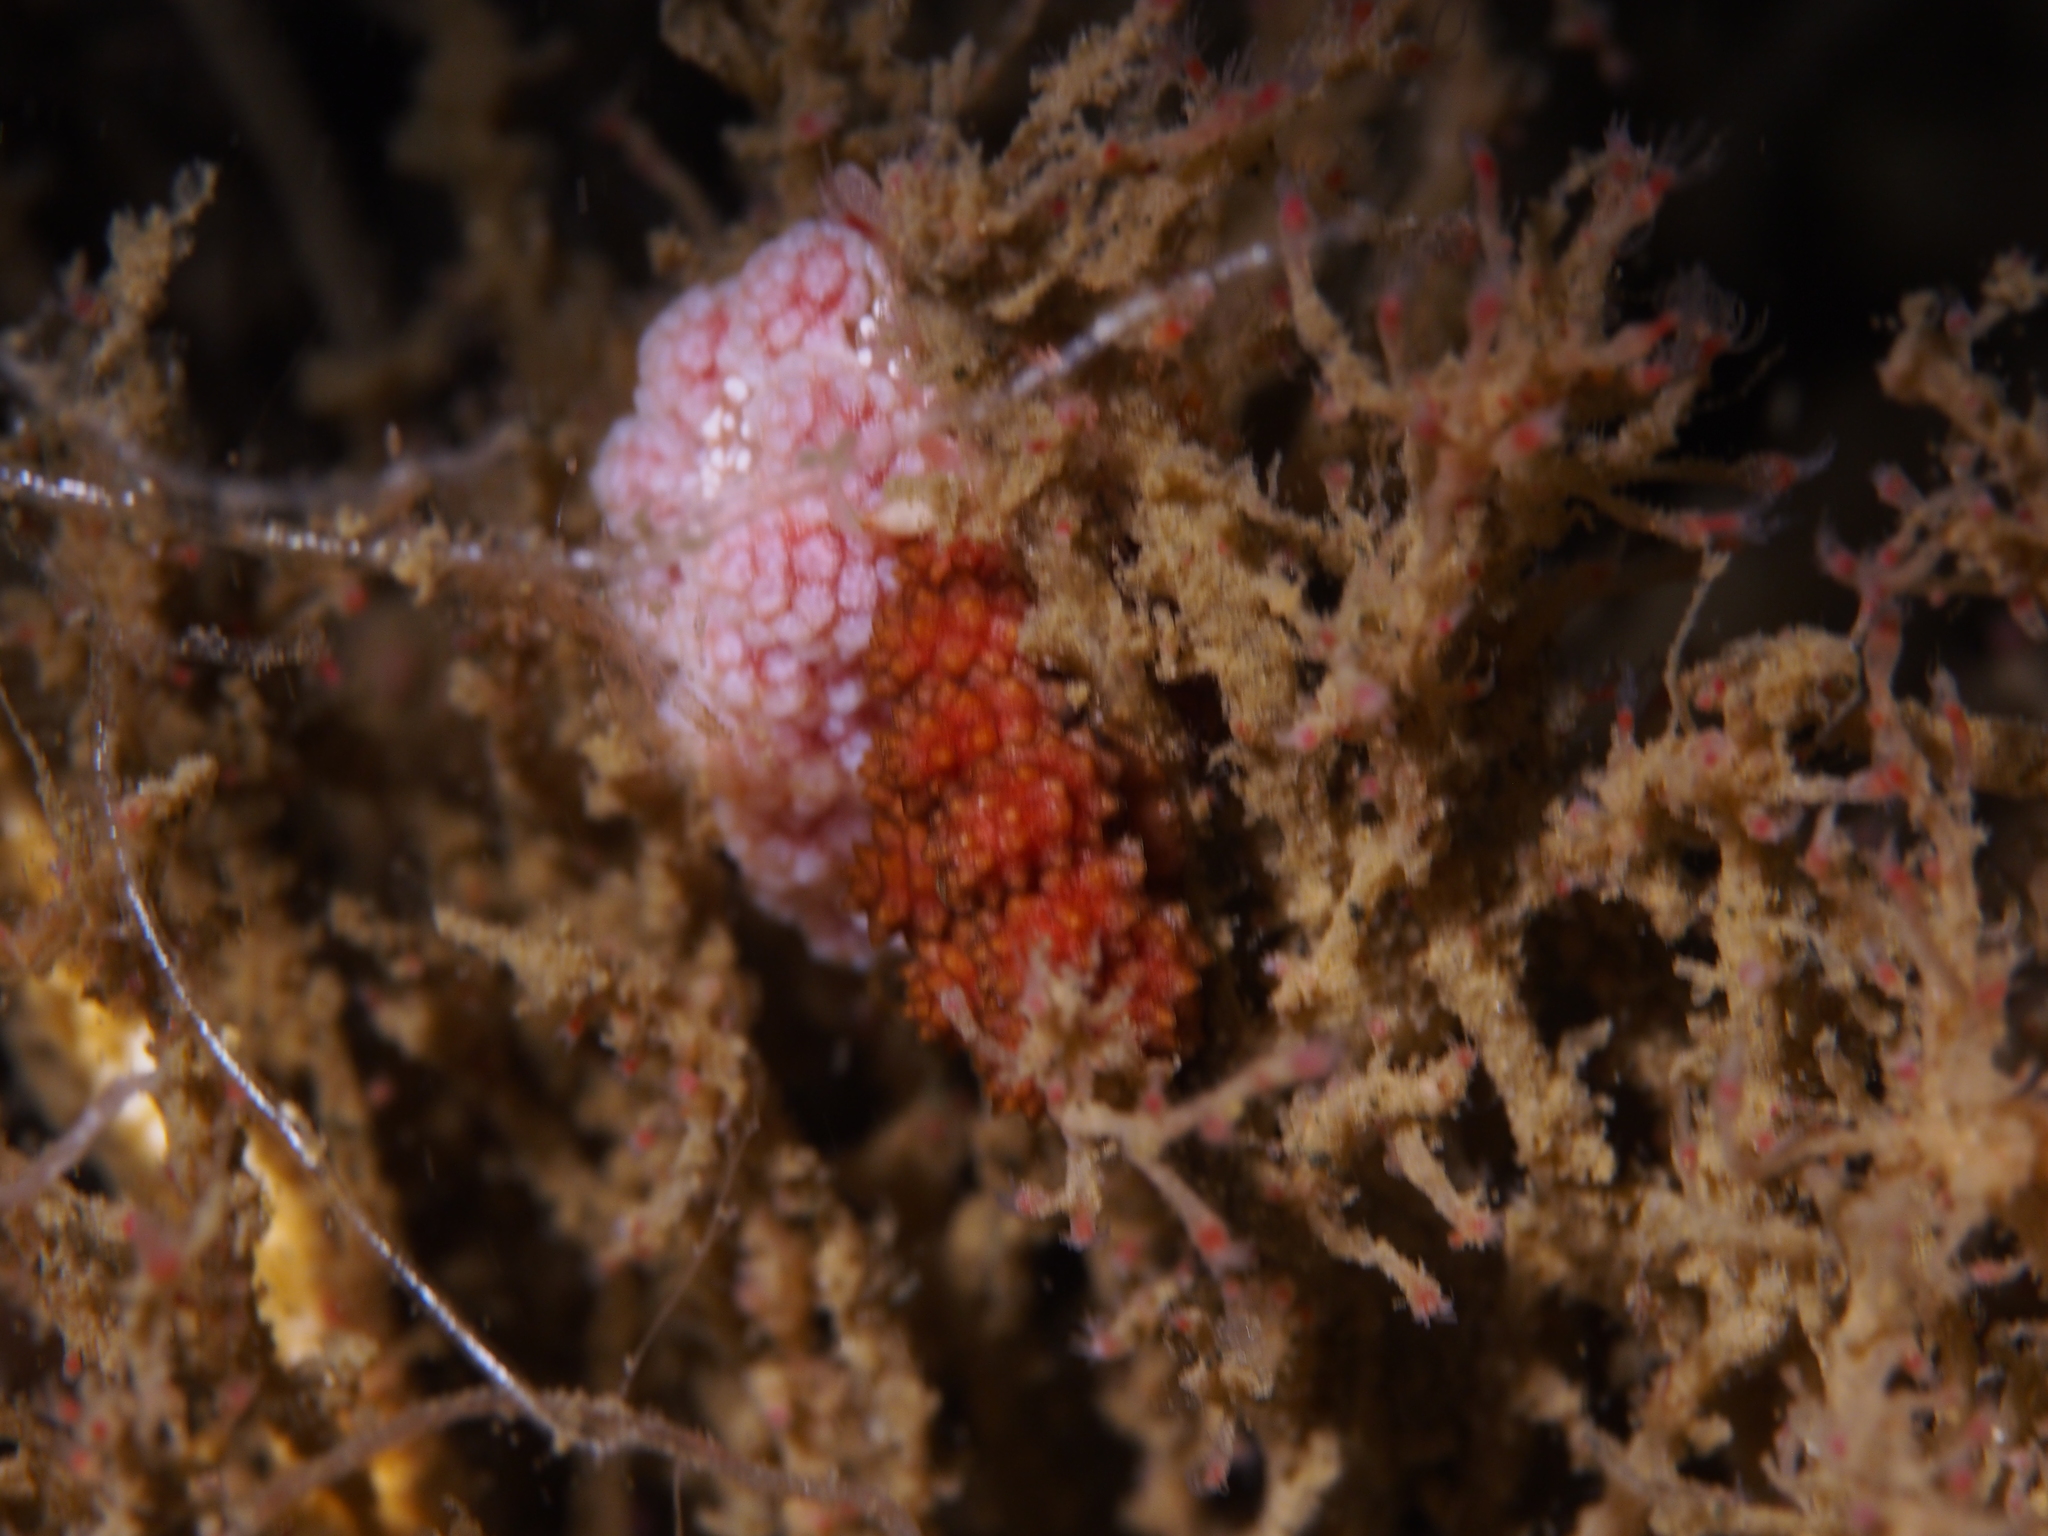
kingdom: Animalia
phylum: Mollusca
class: Gastropoda
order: Nudibranchia
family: Dotidae
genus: Doto
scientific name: Doto fragilis
